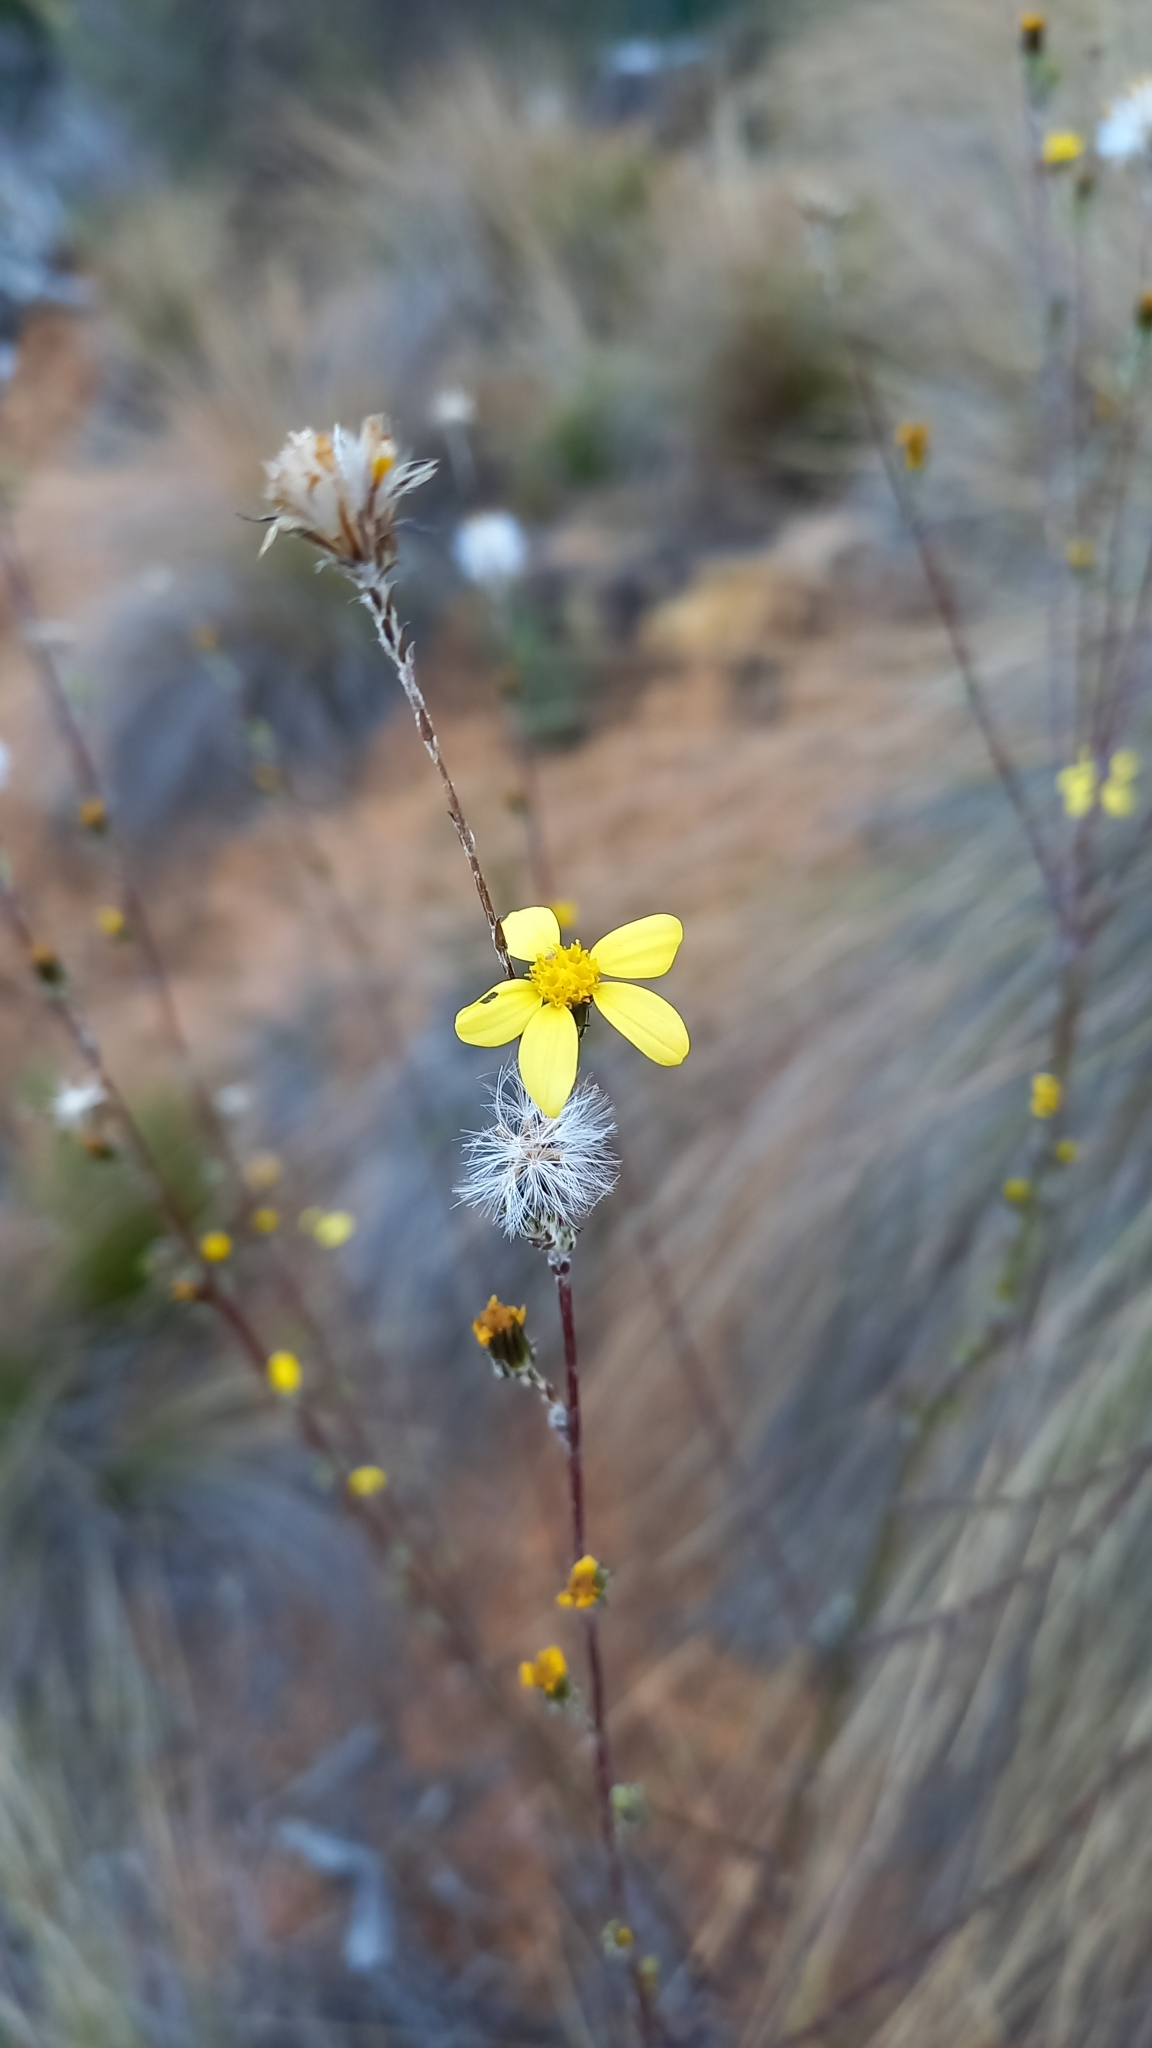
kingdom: Plantae
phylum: Tracheophyta
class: Magnoliopsida
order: Asterales
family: Asteraceae
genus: Senecio
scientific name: Senecio pubigerus
